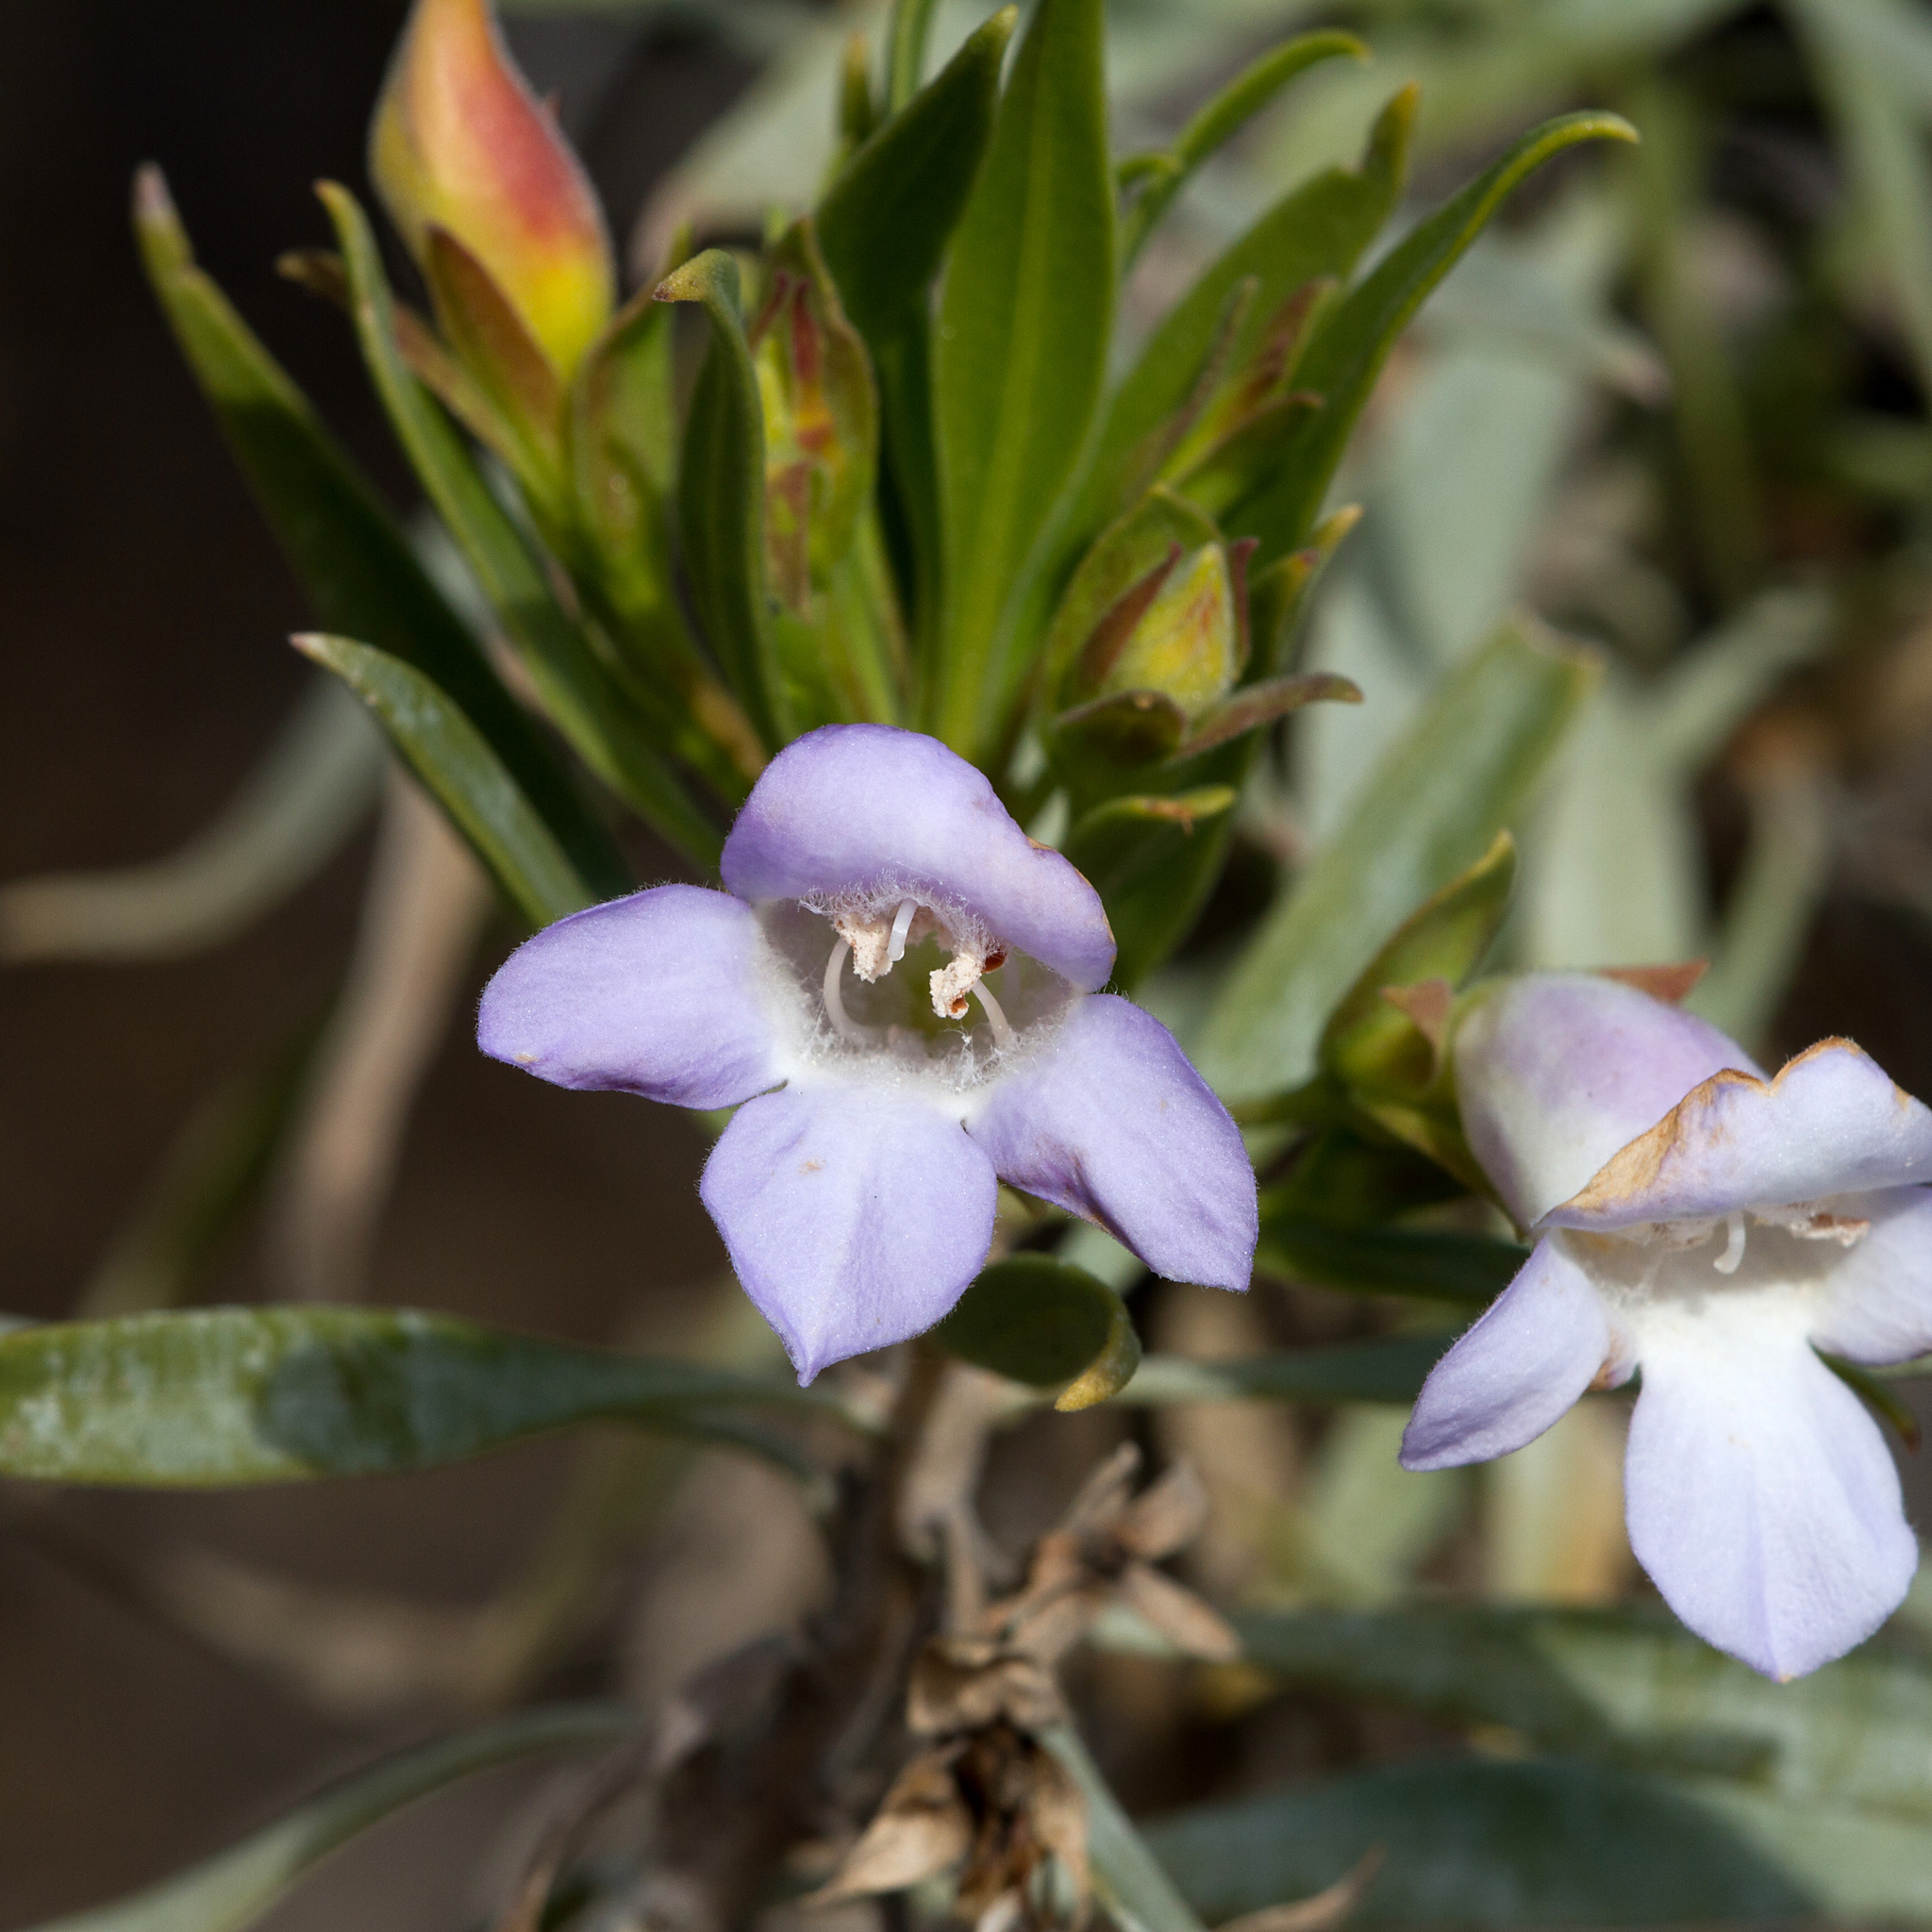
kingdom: Plantae
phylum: Tracheophyta
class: Magnoliopsida
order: Lamiales
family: Scrophulariaceae
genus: Eremophila
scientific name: Eremophila freelingii
